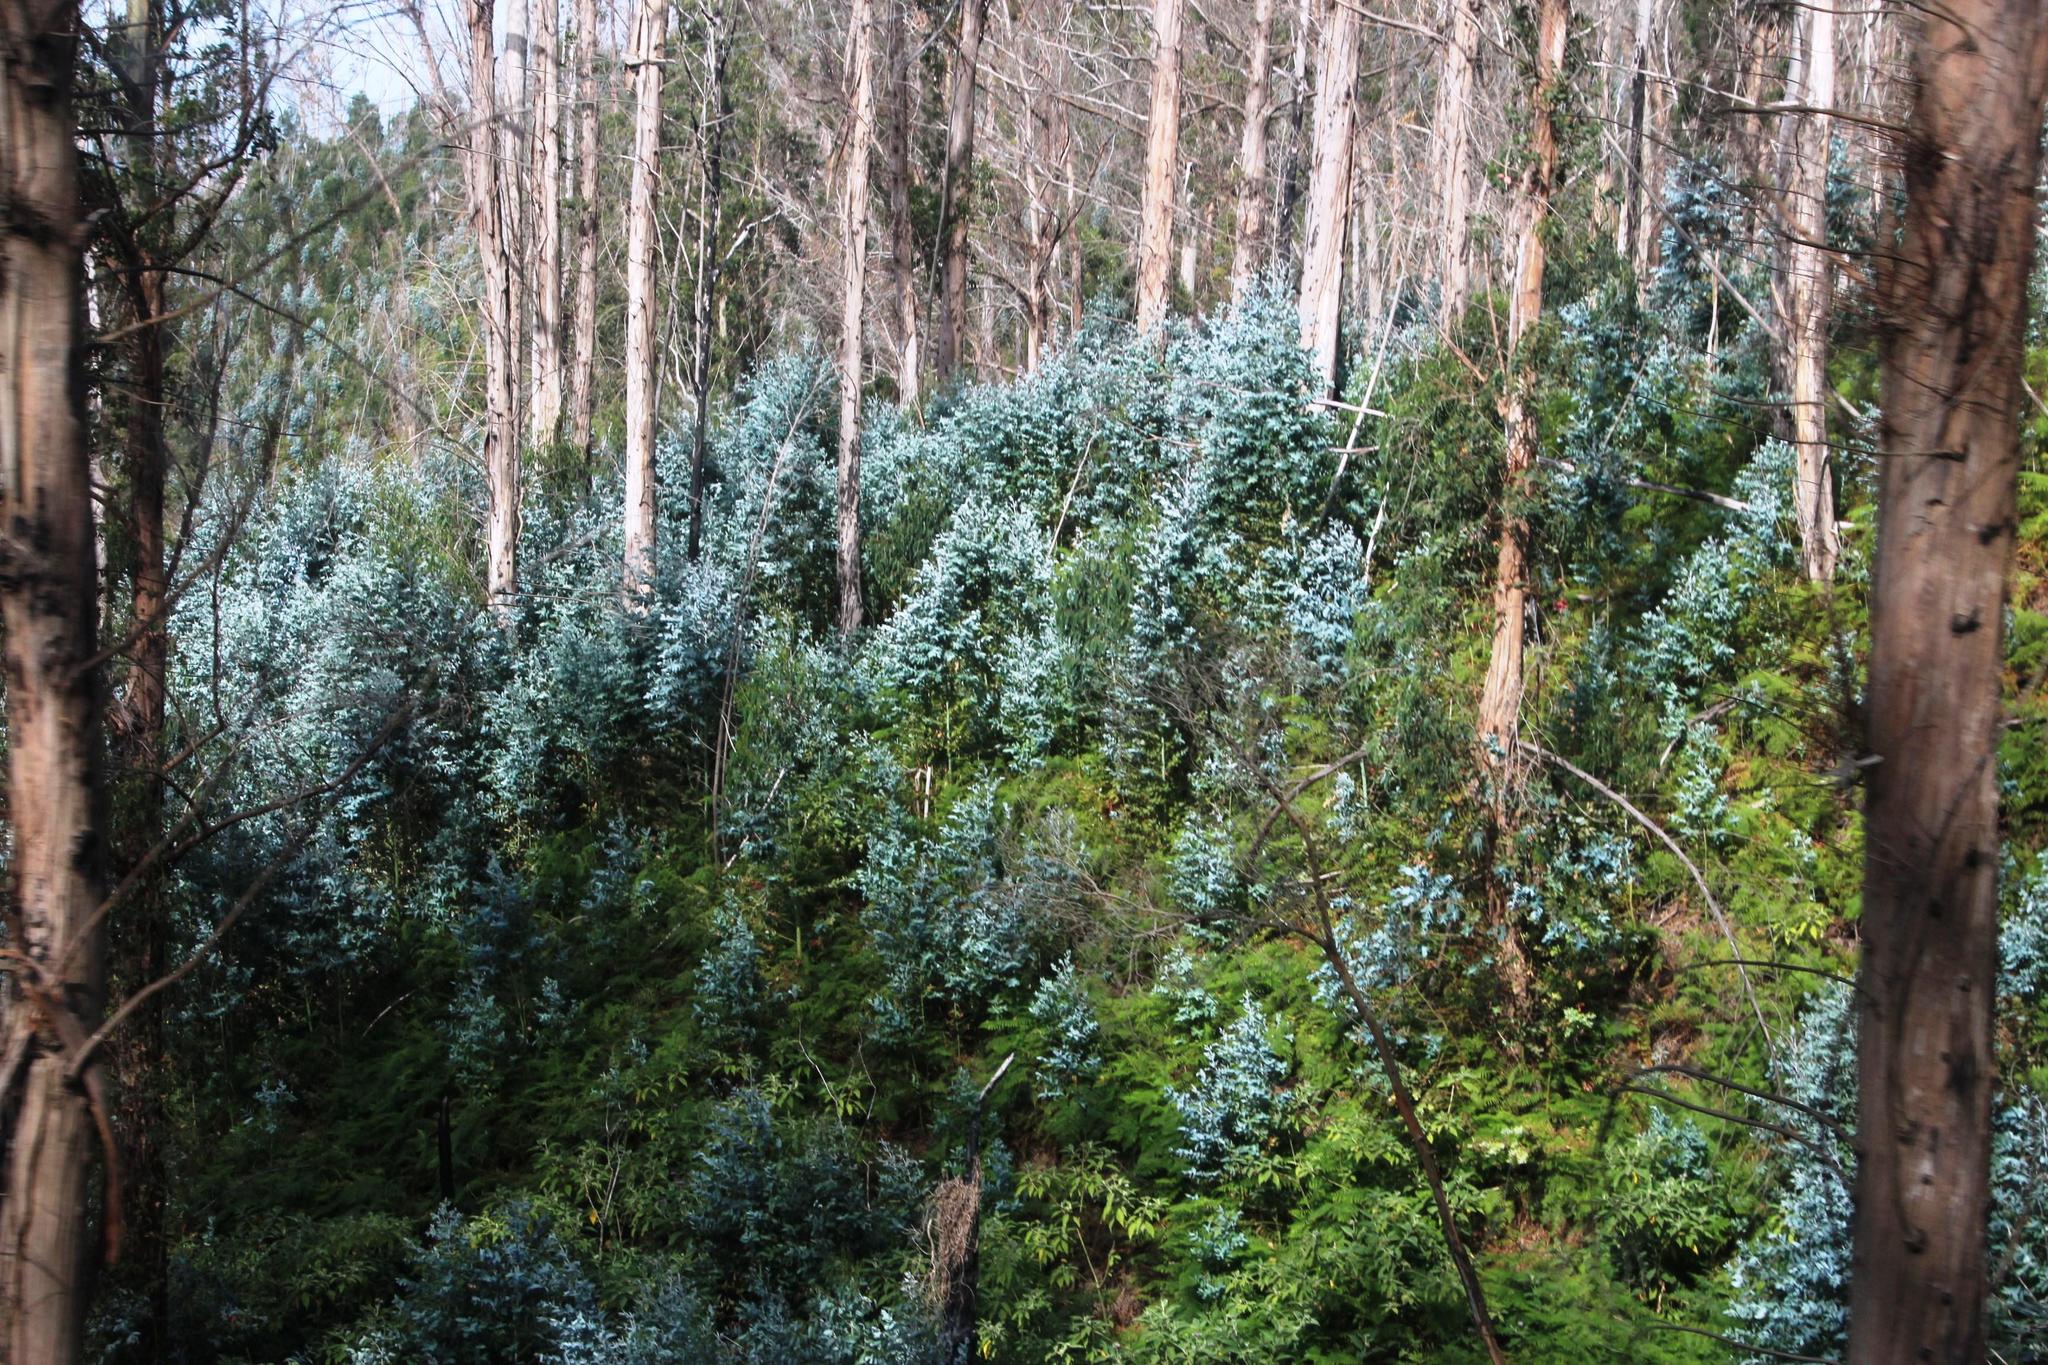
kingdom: Plantae
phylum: Tracheophyta
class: Magnoliopsida
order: Myrtales
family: Myrtaceae
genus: Eucalyptus
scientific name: Eucalyptus globulus
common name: Southern blue-gum
